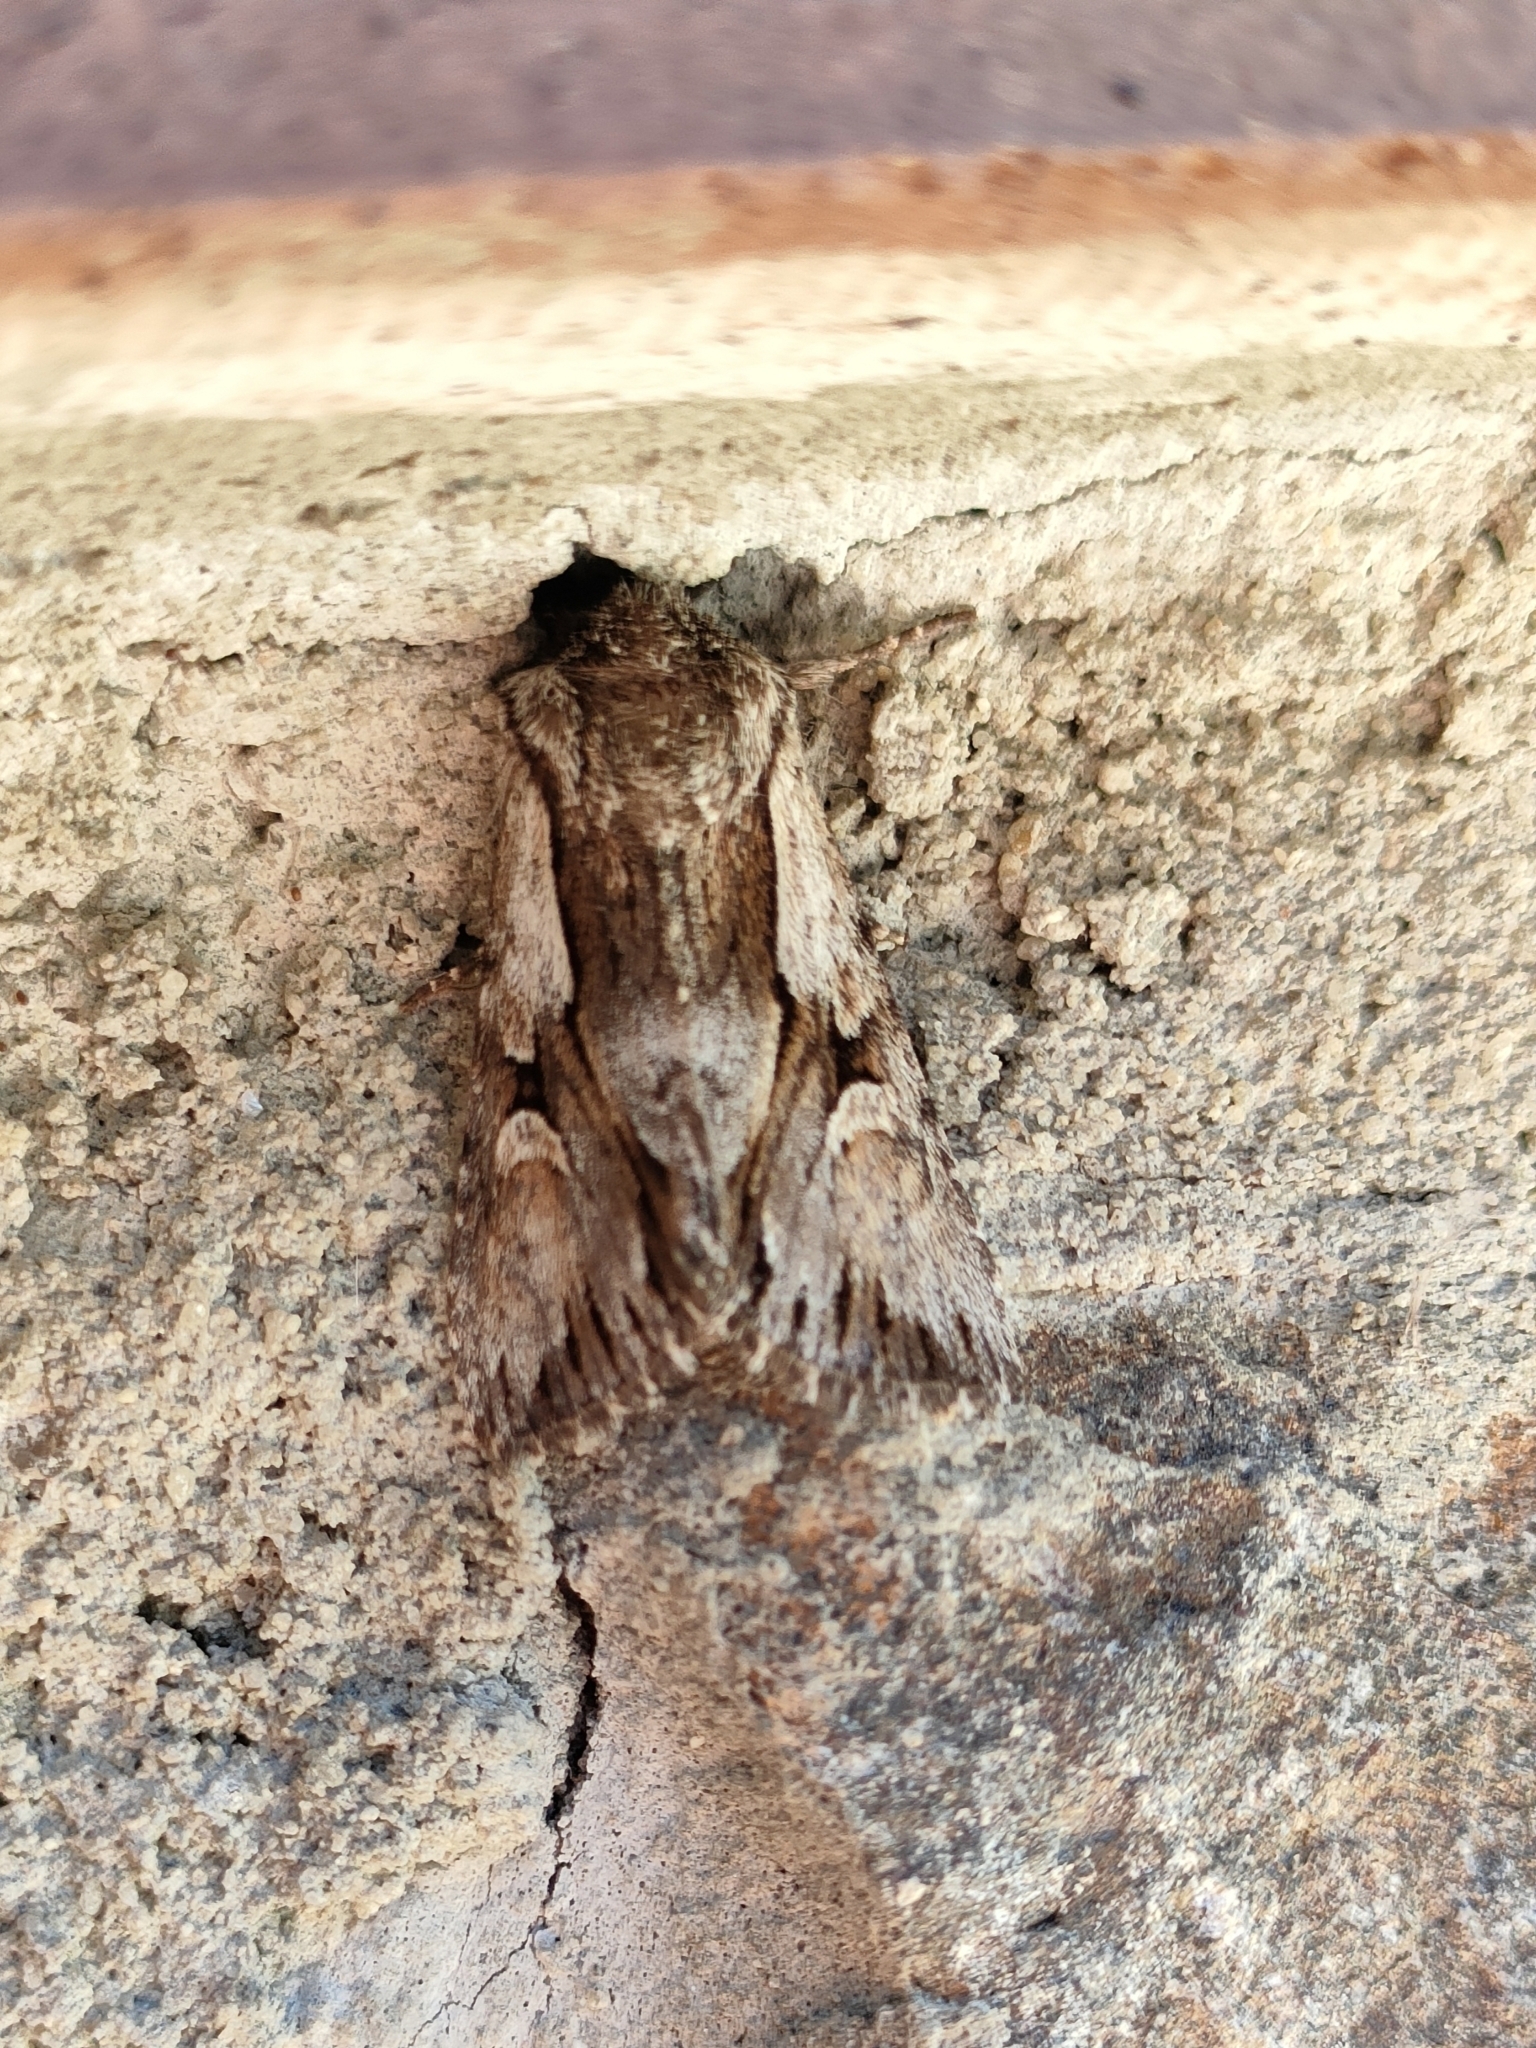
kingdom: Animalia
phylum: Arthropoda
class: Insecta
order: Lepidoptera
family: Noctuidae
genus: Chloantha
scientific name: Chloantha hyperici
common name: Pale-shouldered cloud
